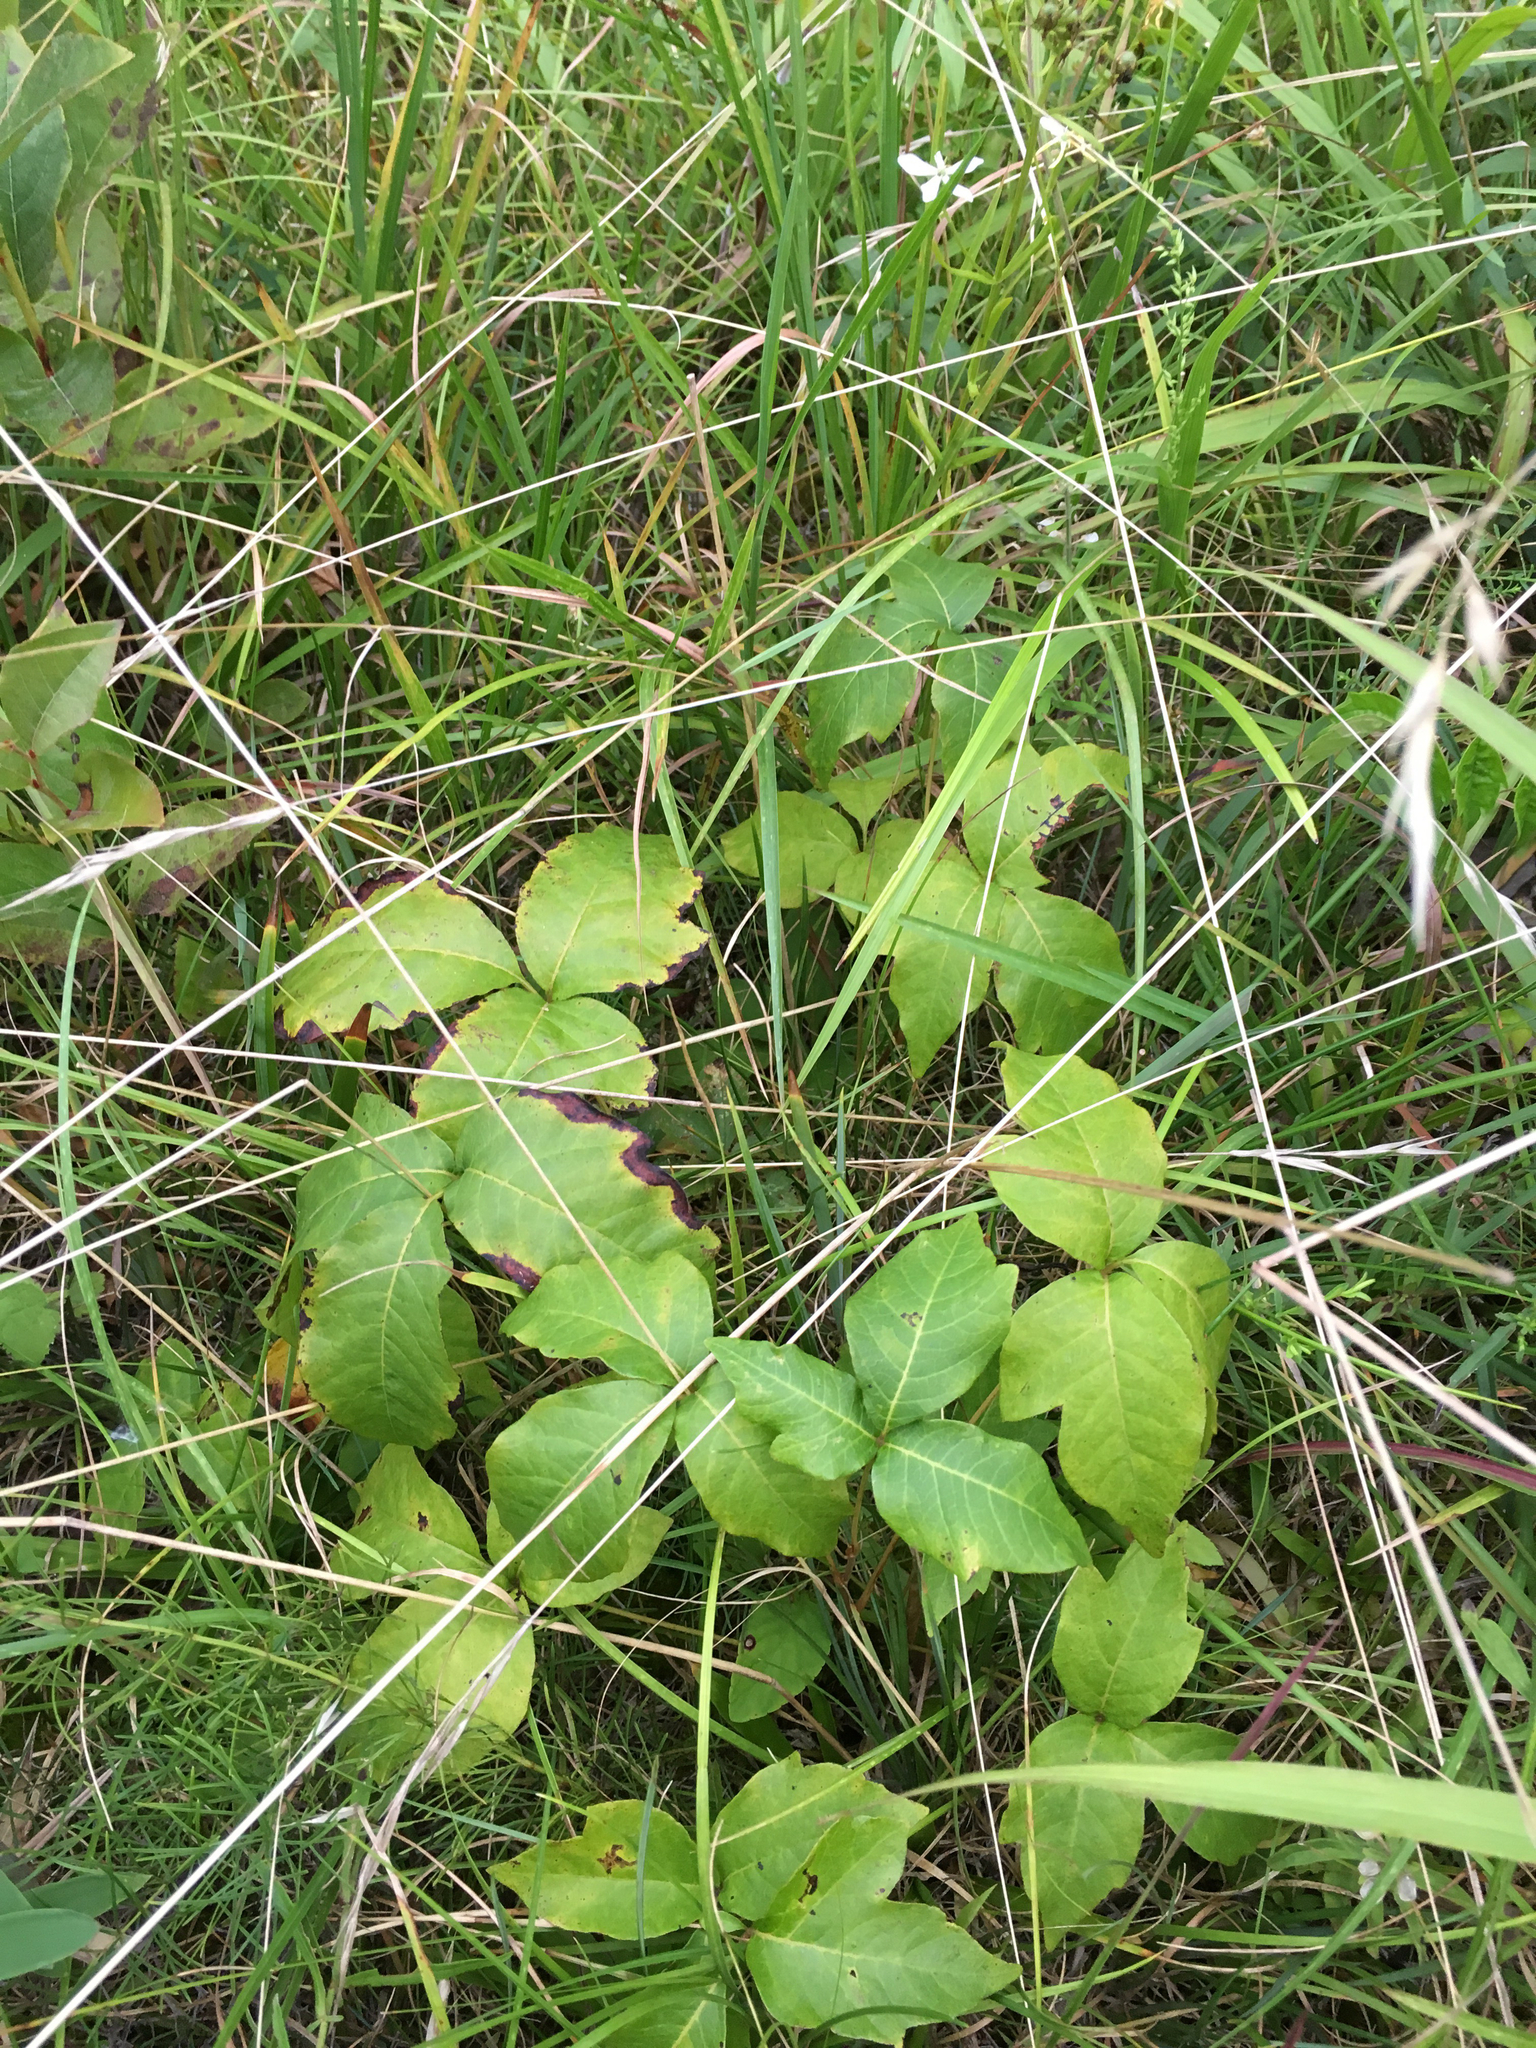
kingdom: Plantae
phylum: Tracheophyta
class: Magnoliopsida
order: Sapindales
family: Anacardiaceae
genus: Toxicodendron
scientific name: Toxicodendron radicans
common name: Poison ivy
